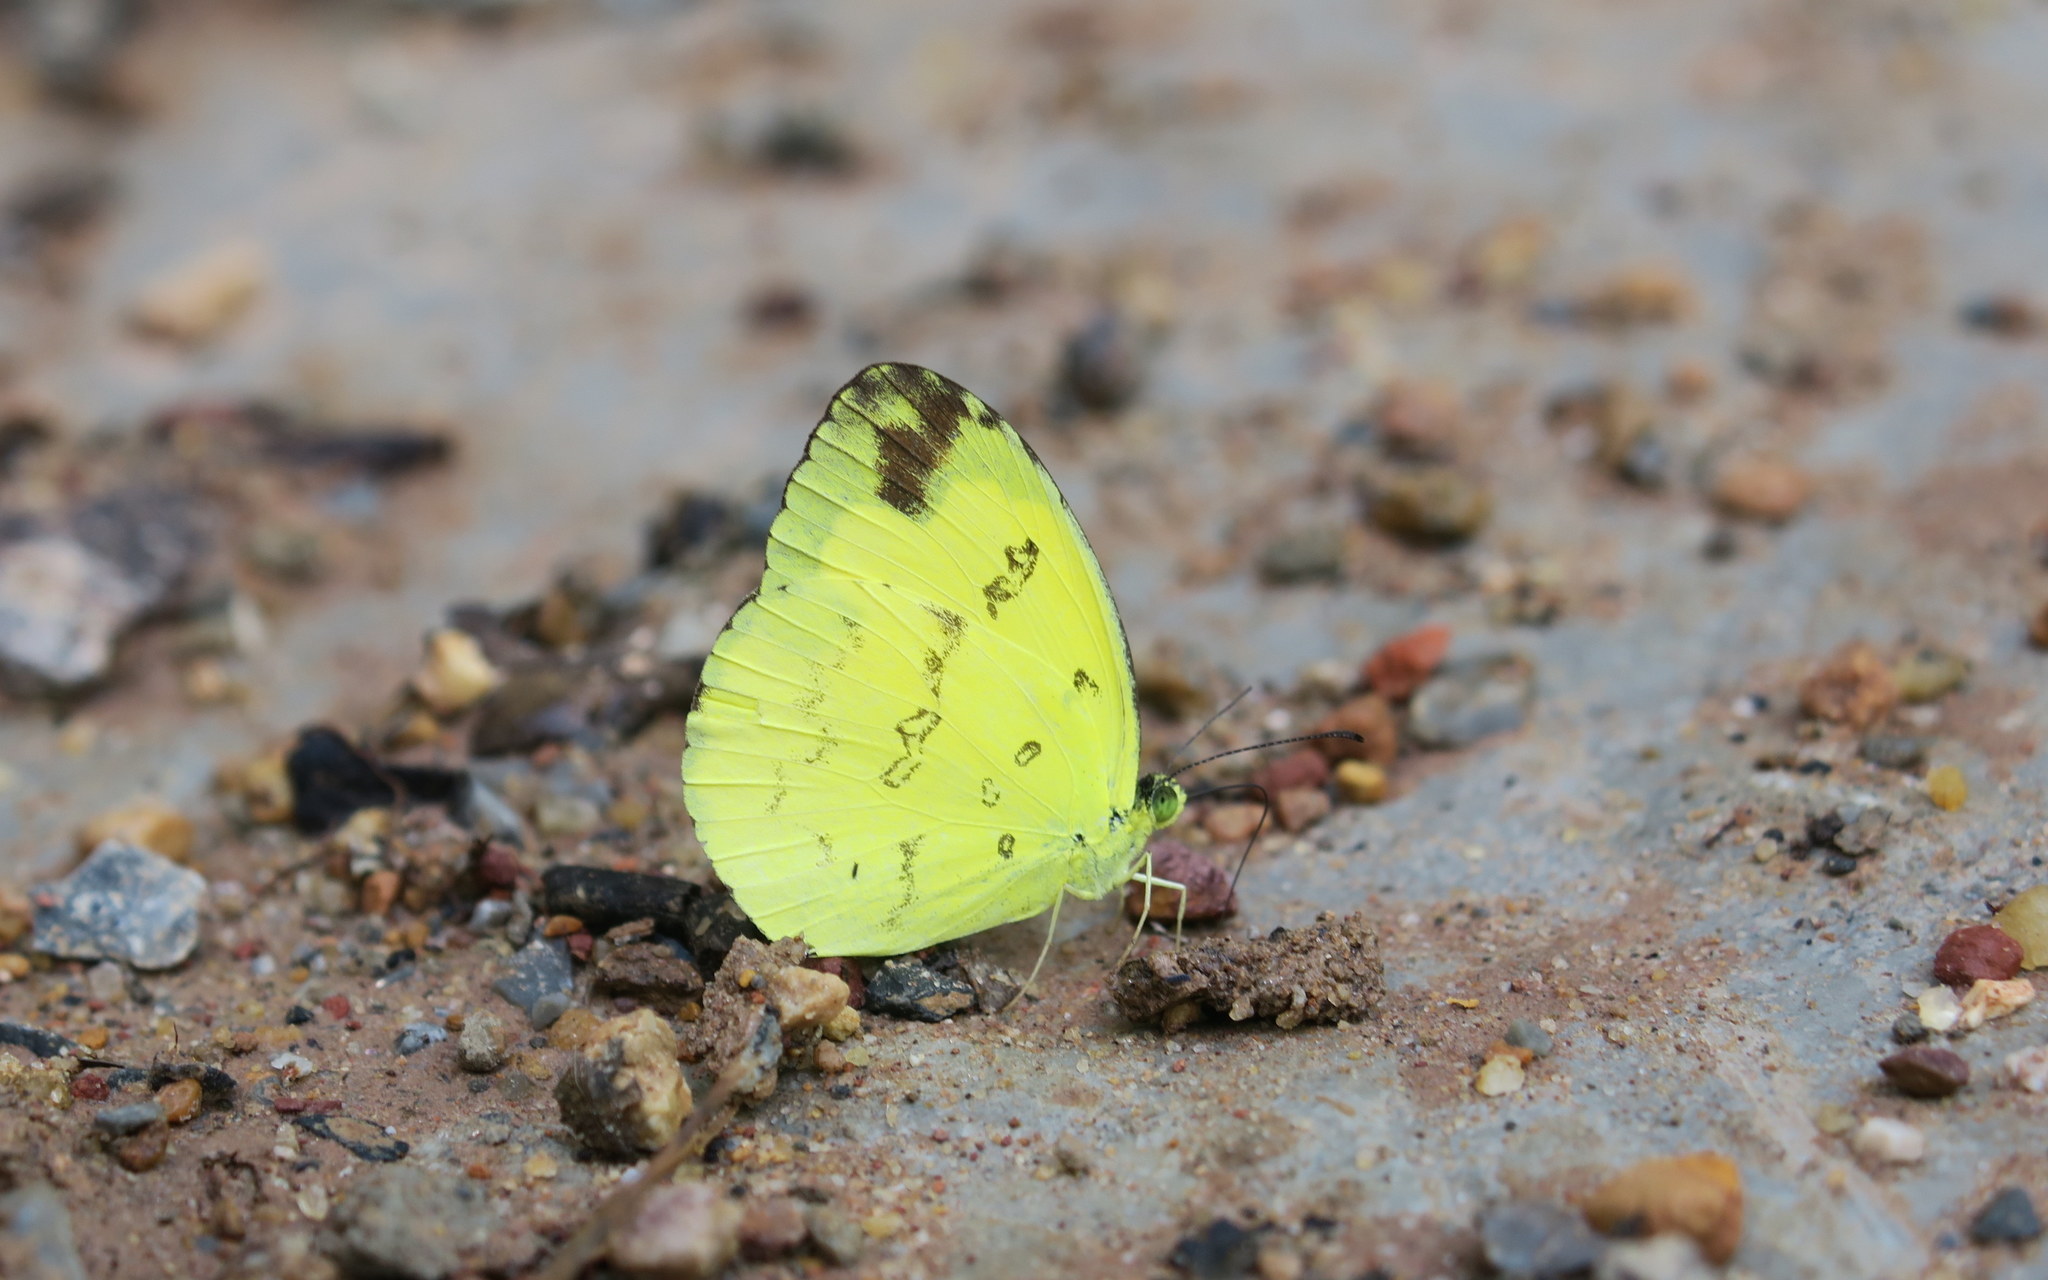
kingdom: Animalia
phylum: Arthropoda
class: Insecta
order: Lepidoptera
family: Pieridae
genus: Eurema
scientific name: Eurema hecabe
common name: Pale grass yellow
